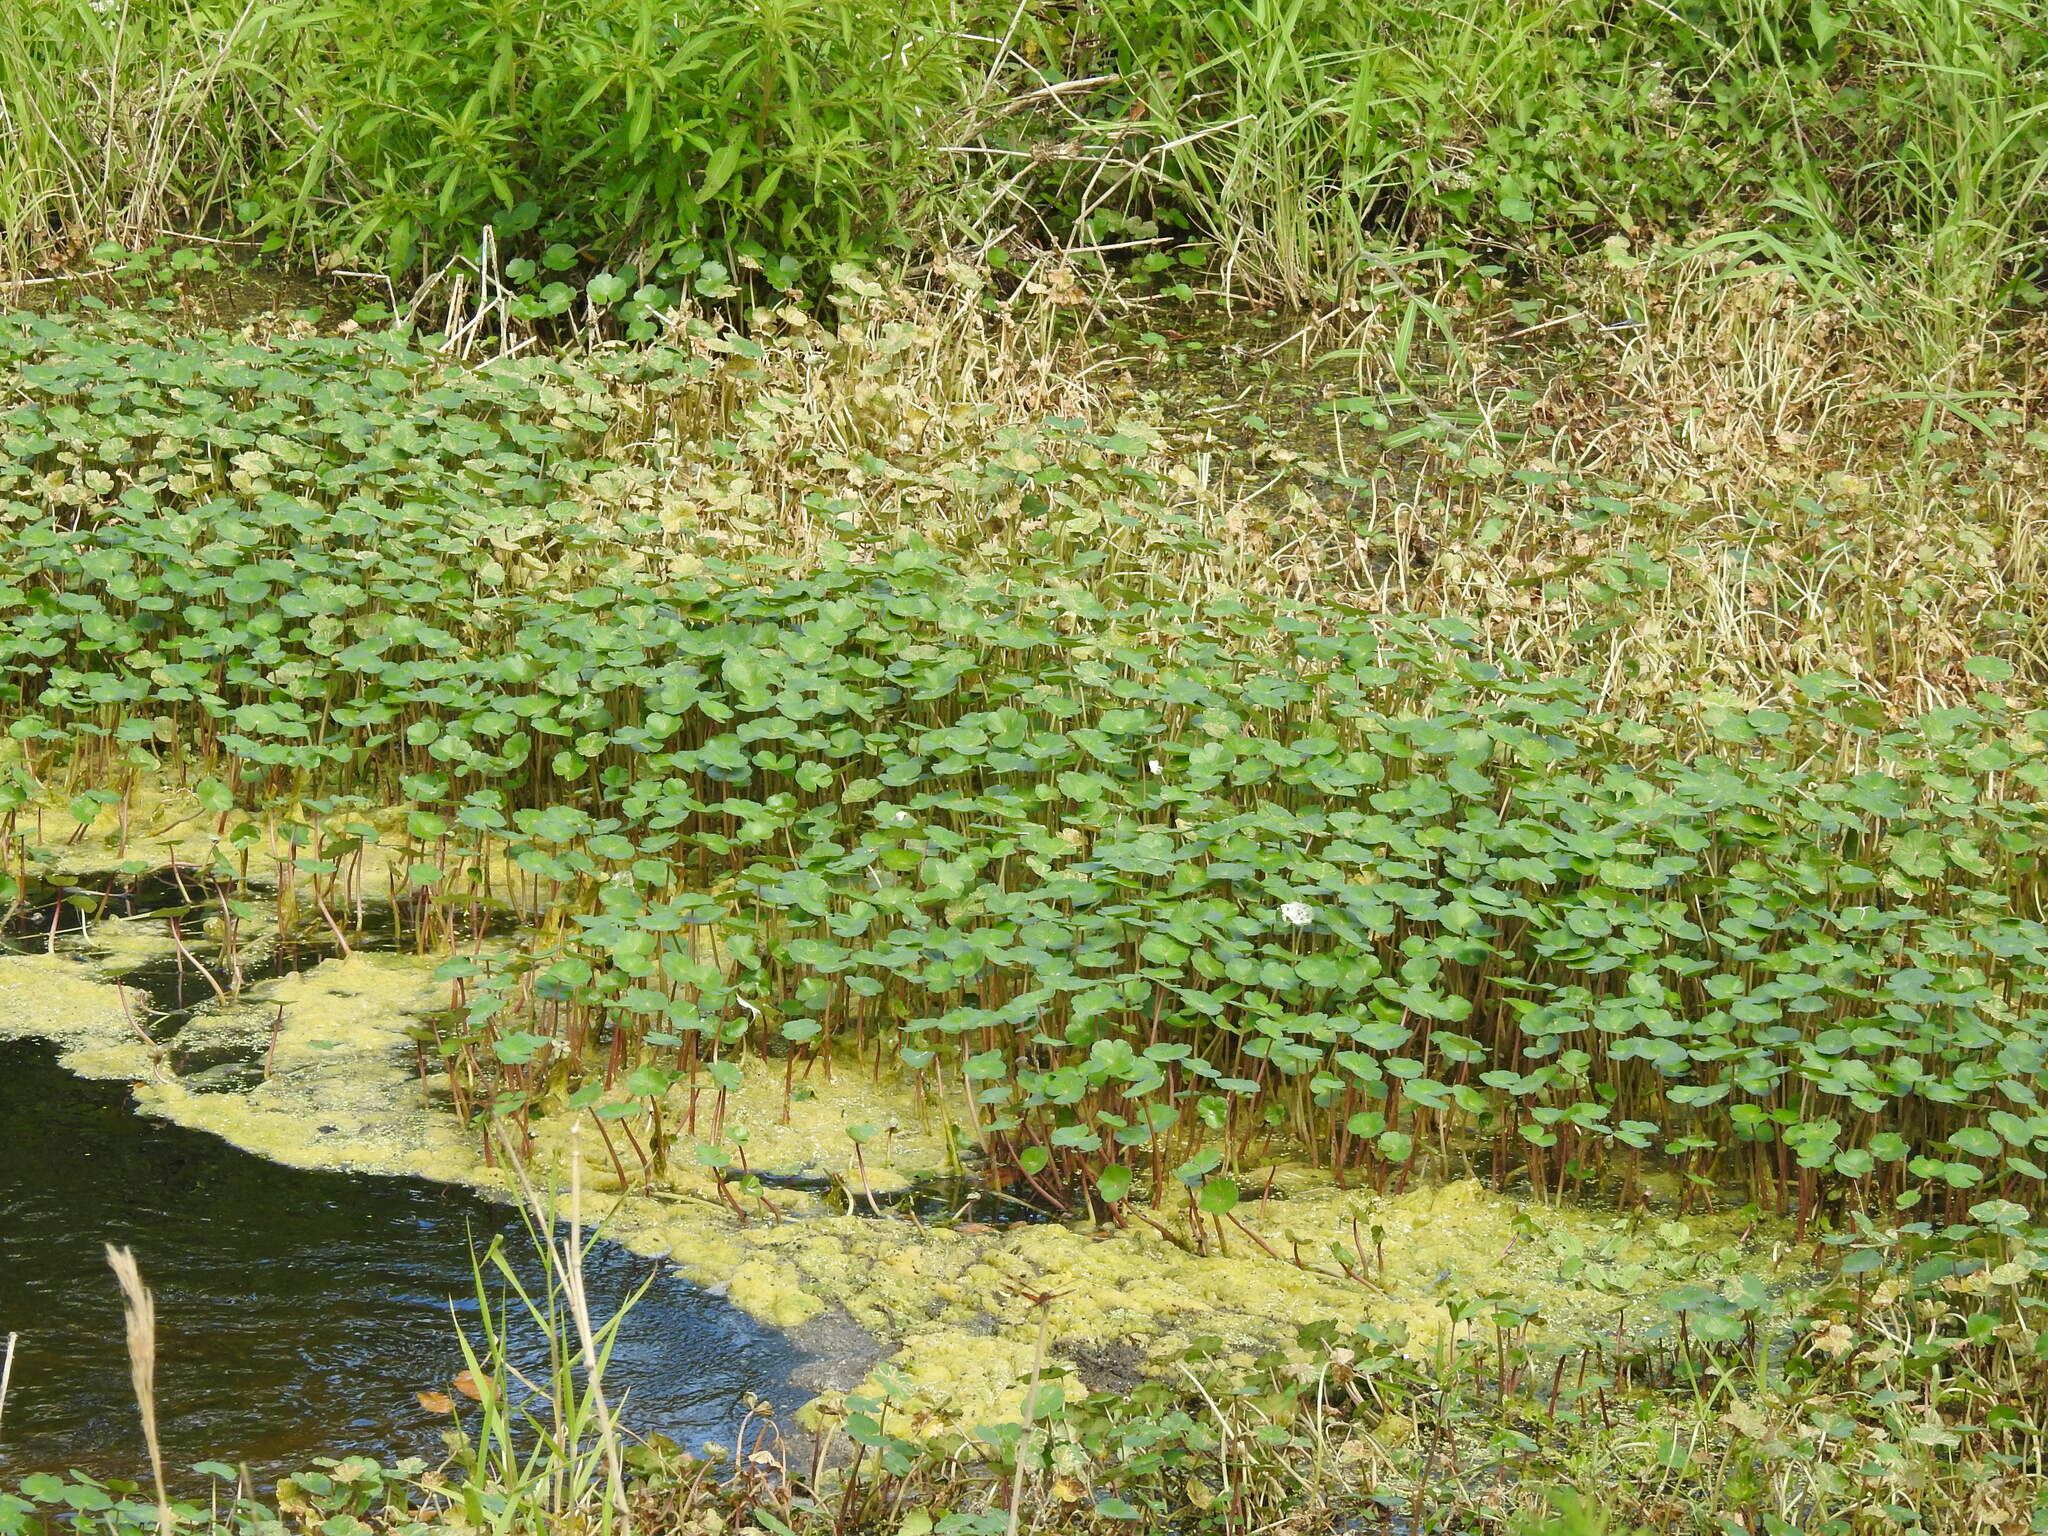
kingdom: Plantae
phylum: Tracheophyta
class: Magnoliopsida
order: Apiales
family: Araliaceae
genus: Hydrocotyle
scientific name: Hydrocotyle ranunculoides
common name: Floating pennywort
